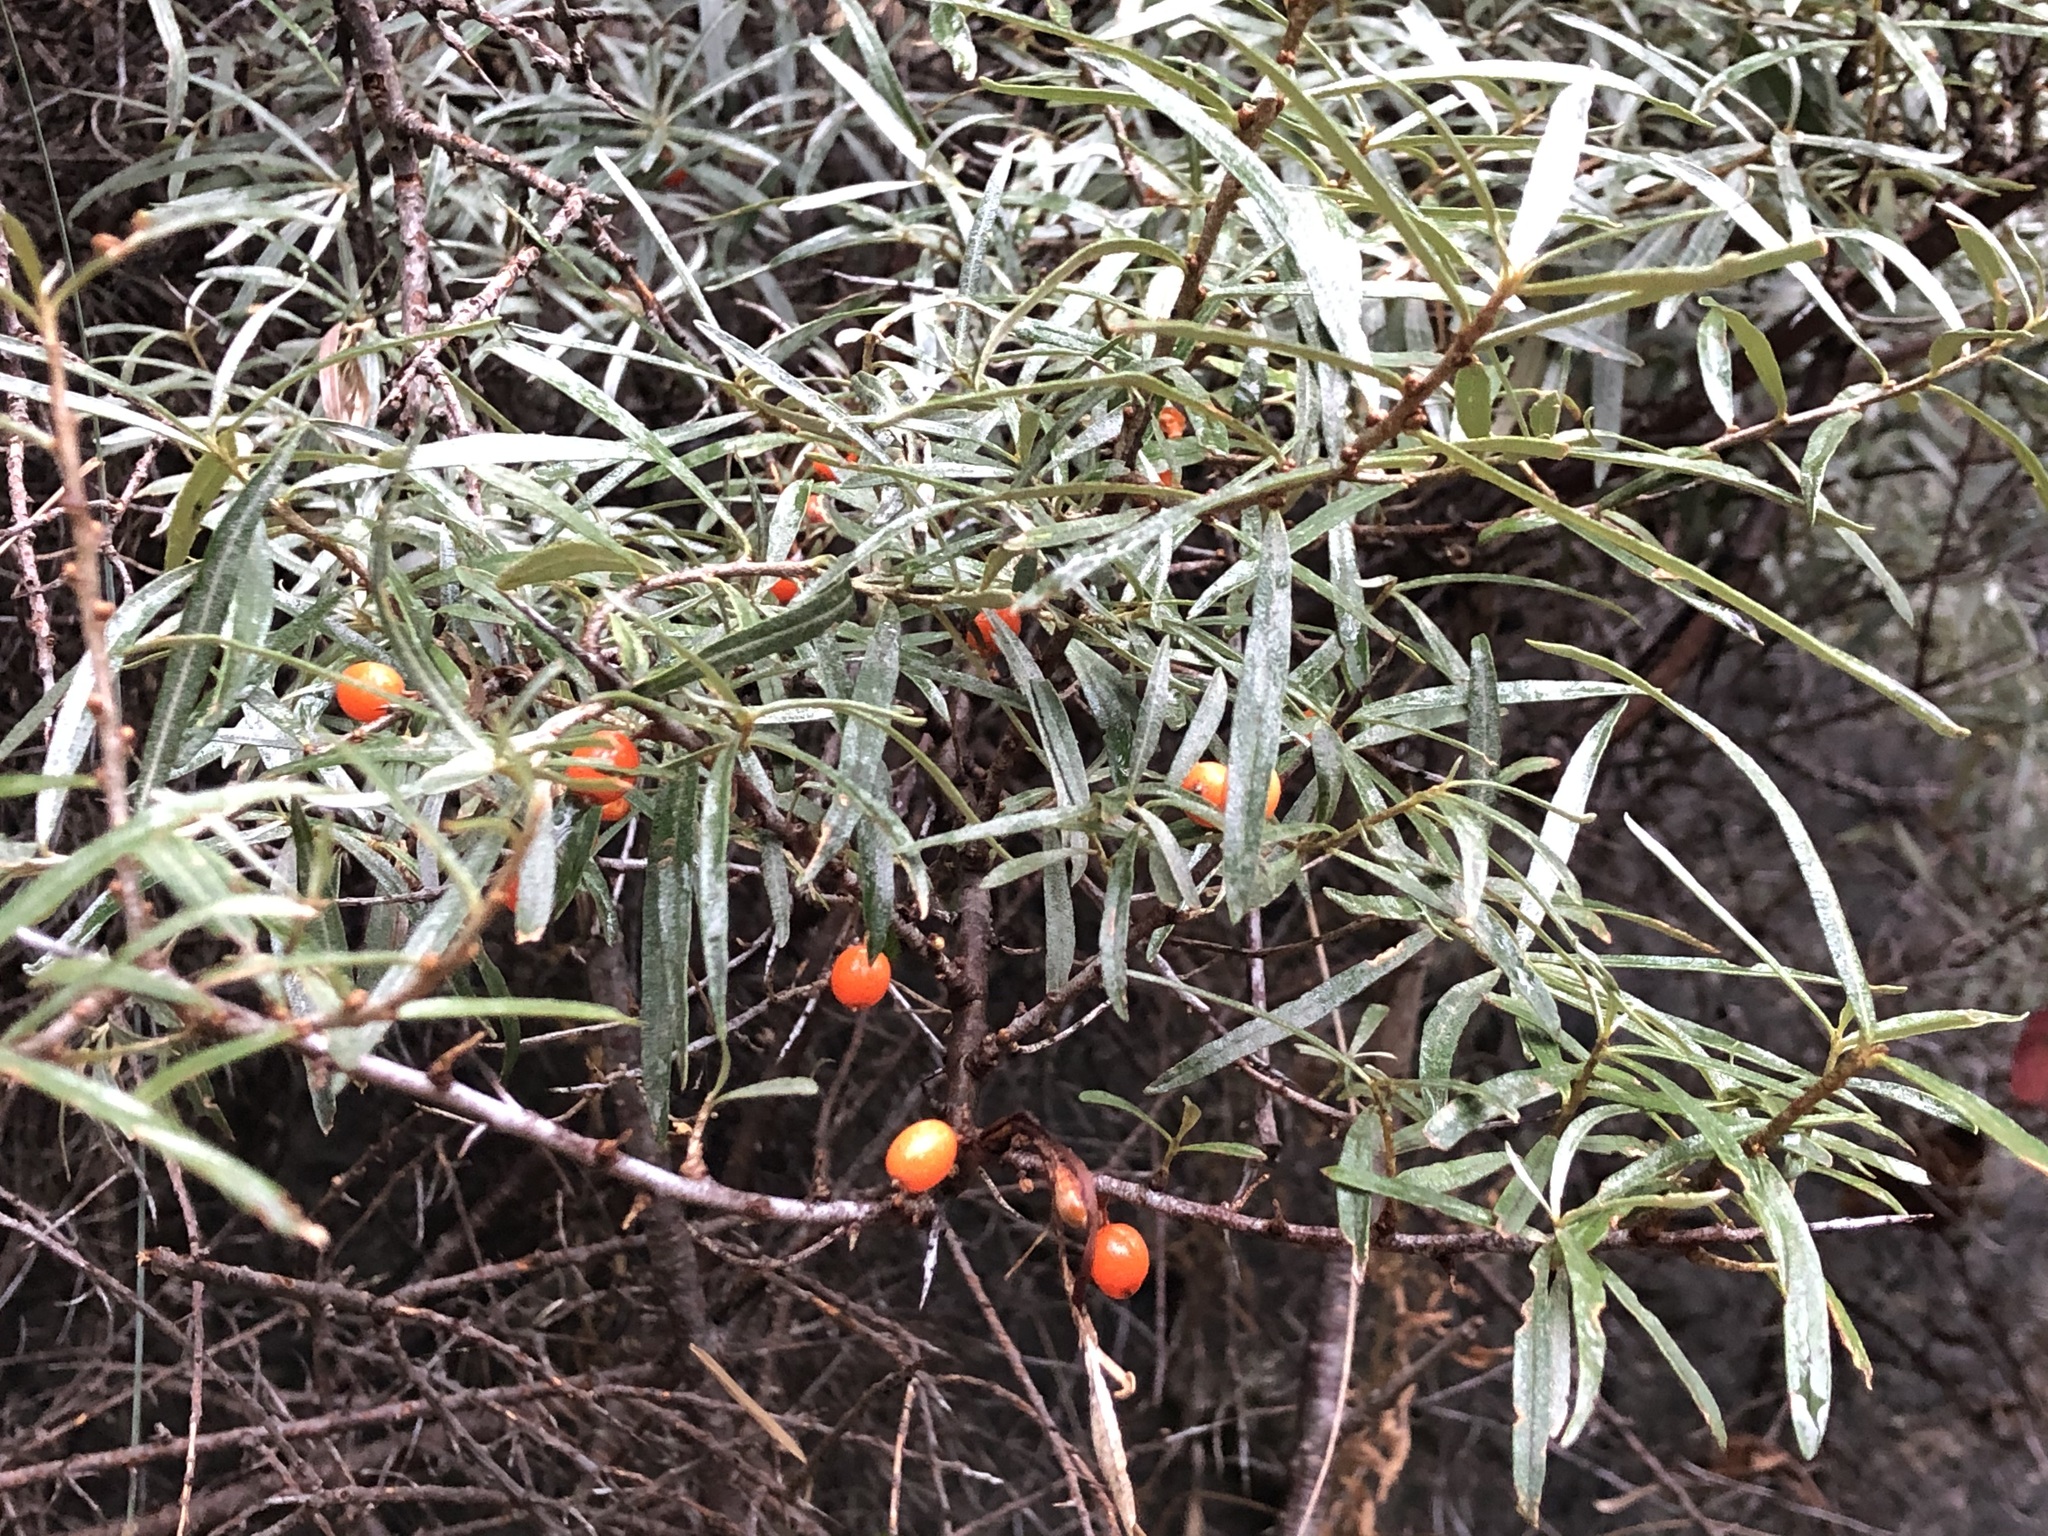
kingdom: Plantae
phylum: Tracheophyta
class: Magnoliopsida
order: Rosales
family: Elaeagnaceae
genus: Hippophae
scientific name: Hippophae rhamnoides
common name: Sea-buckthorn
